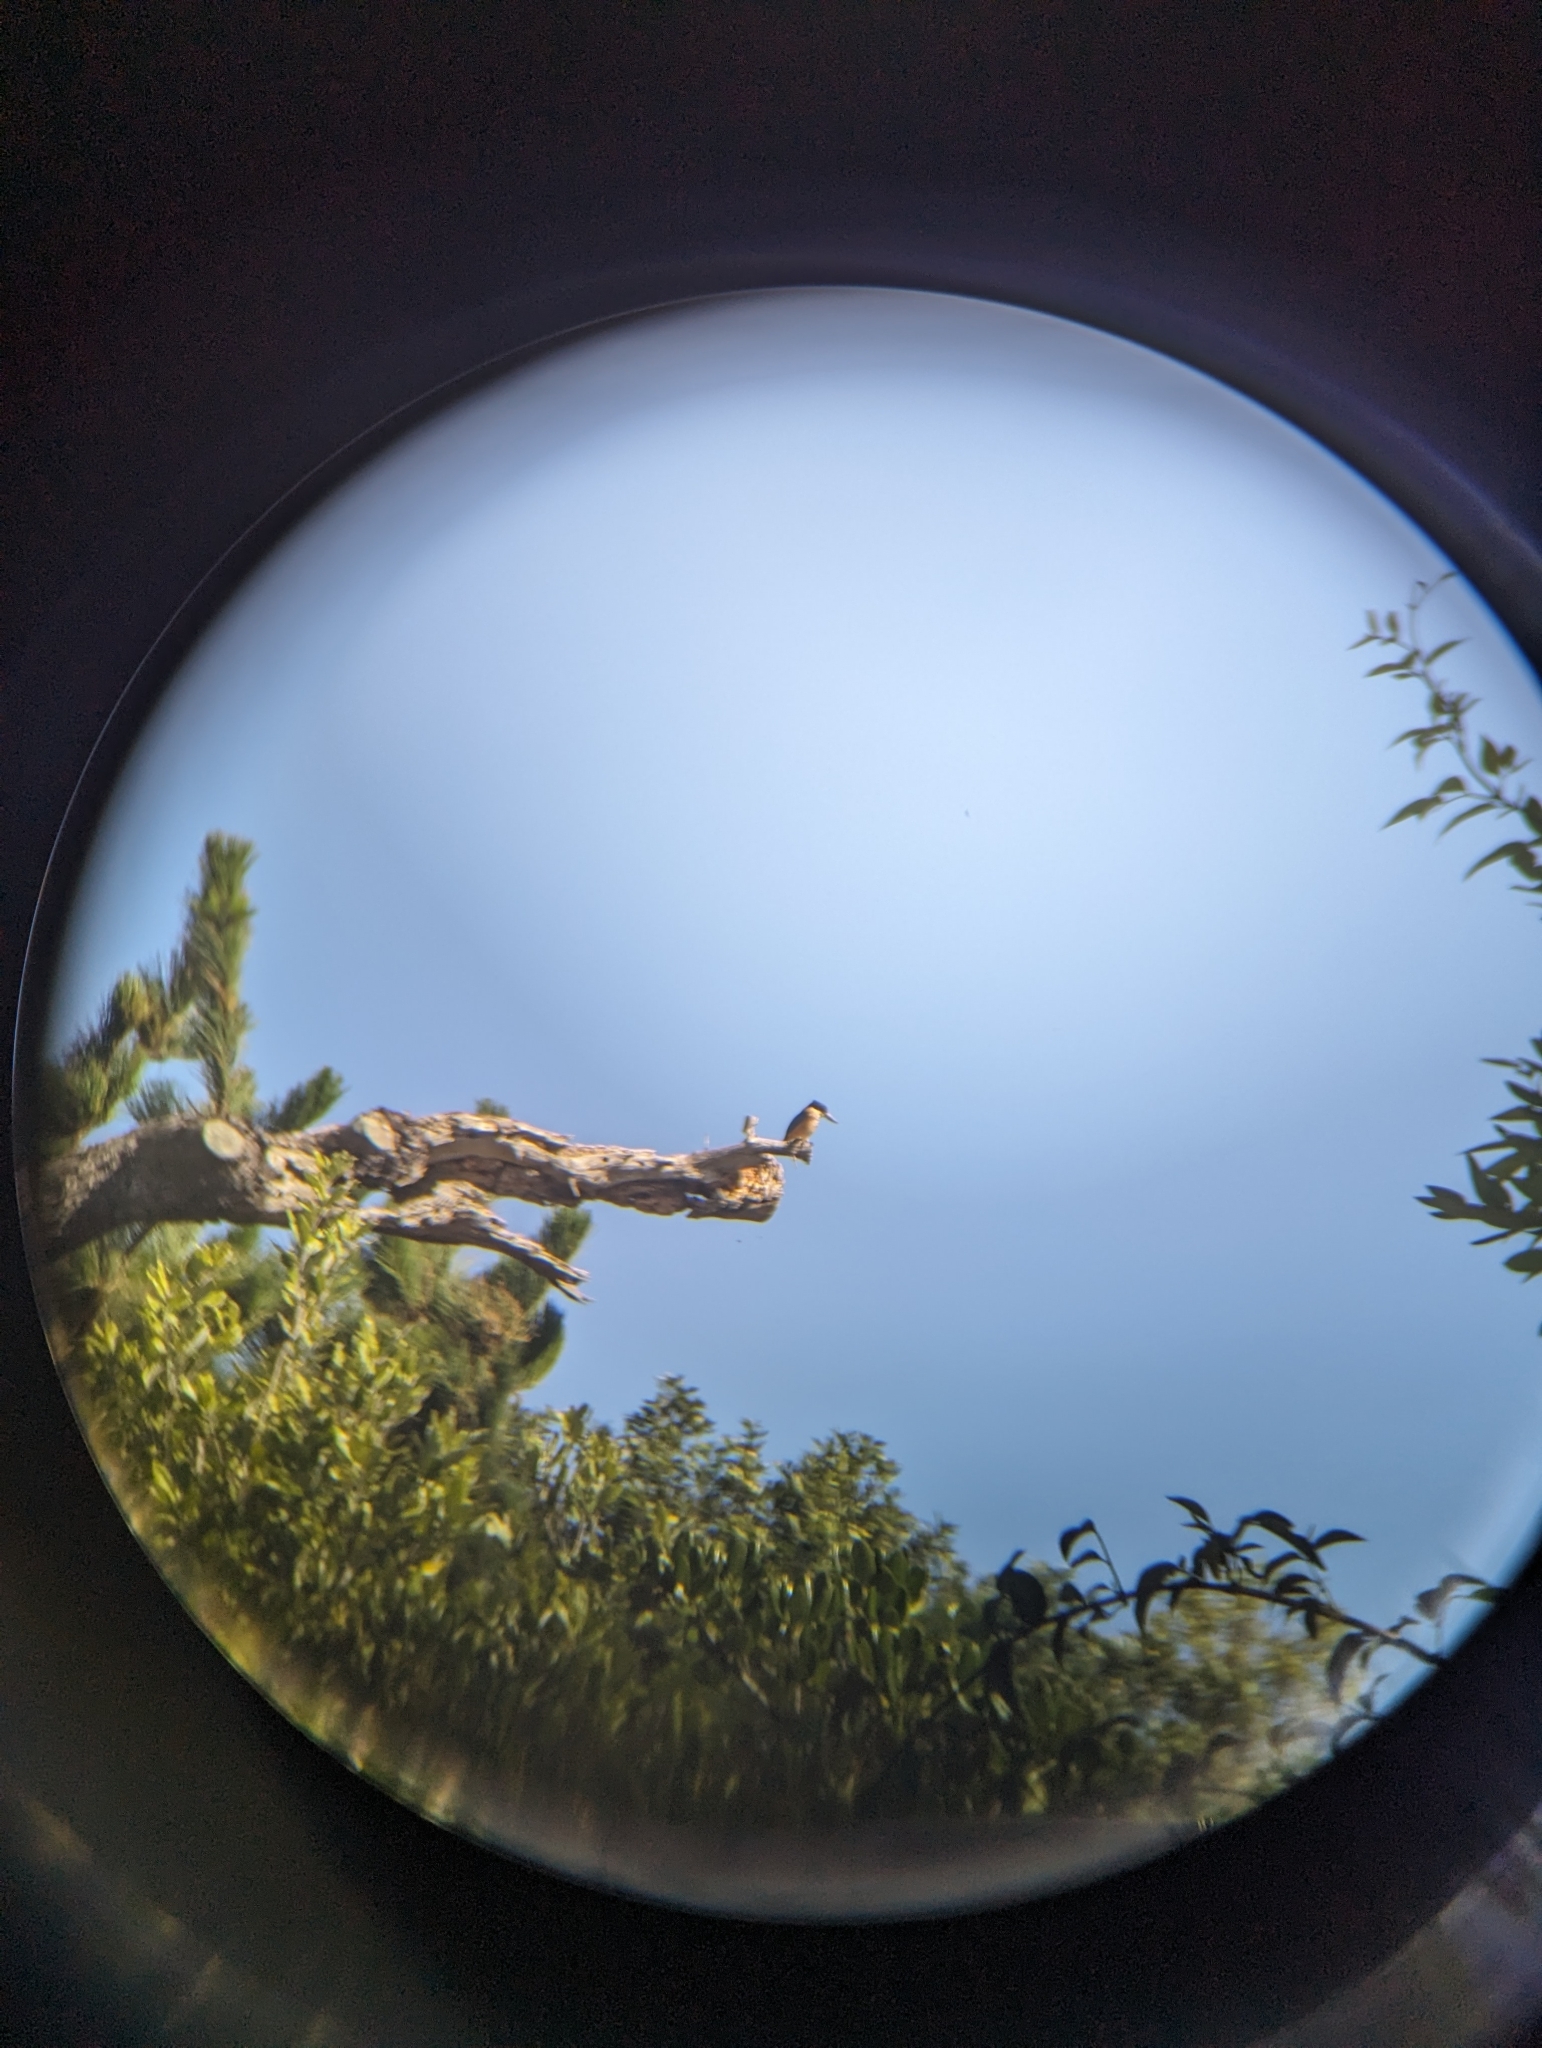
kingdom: Animalia
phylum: Chordata
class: Aves
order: Coraciiformes
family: Alcedinidae
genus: Todiramphus
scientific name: Todiramphus sanctus
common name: Sacred kingfisher
